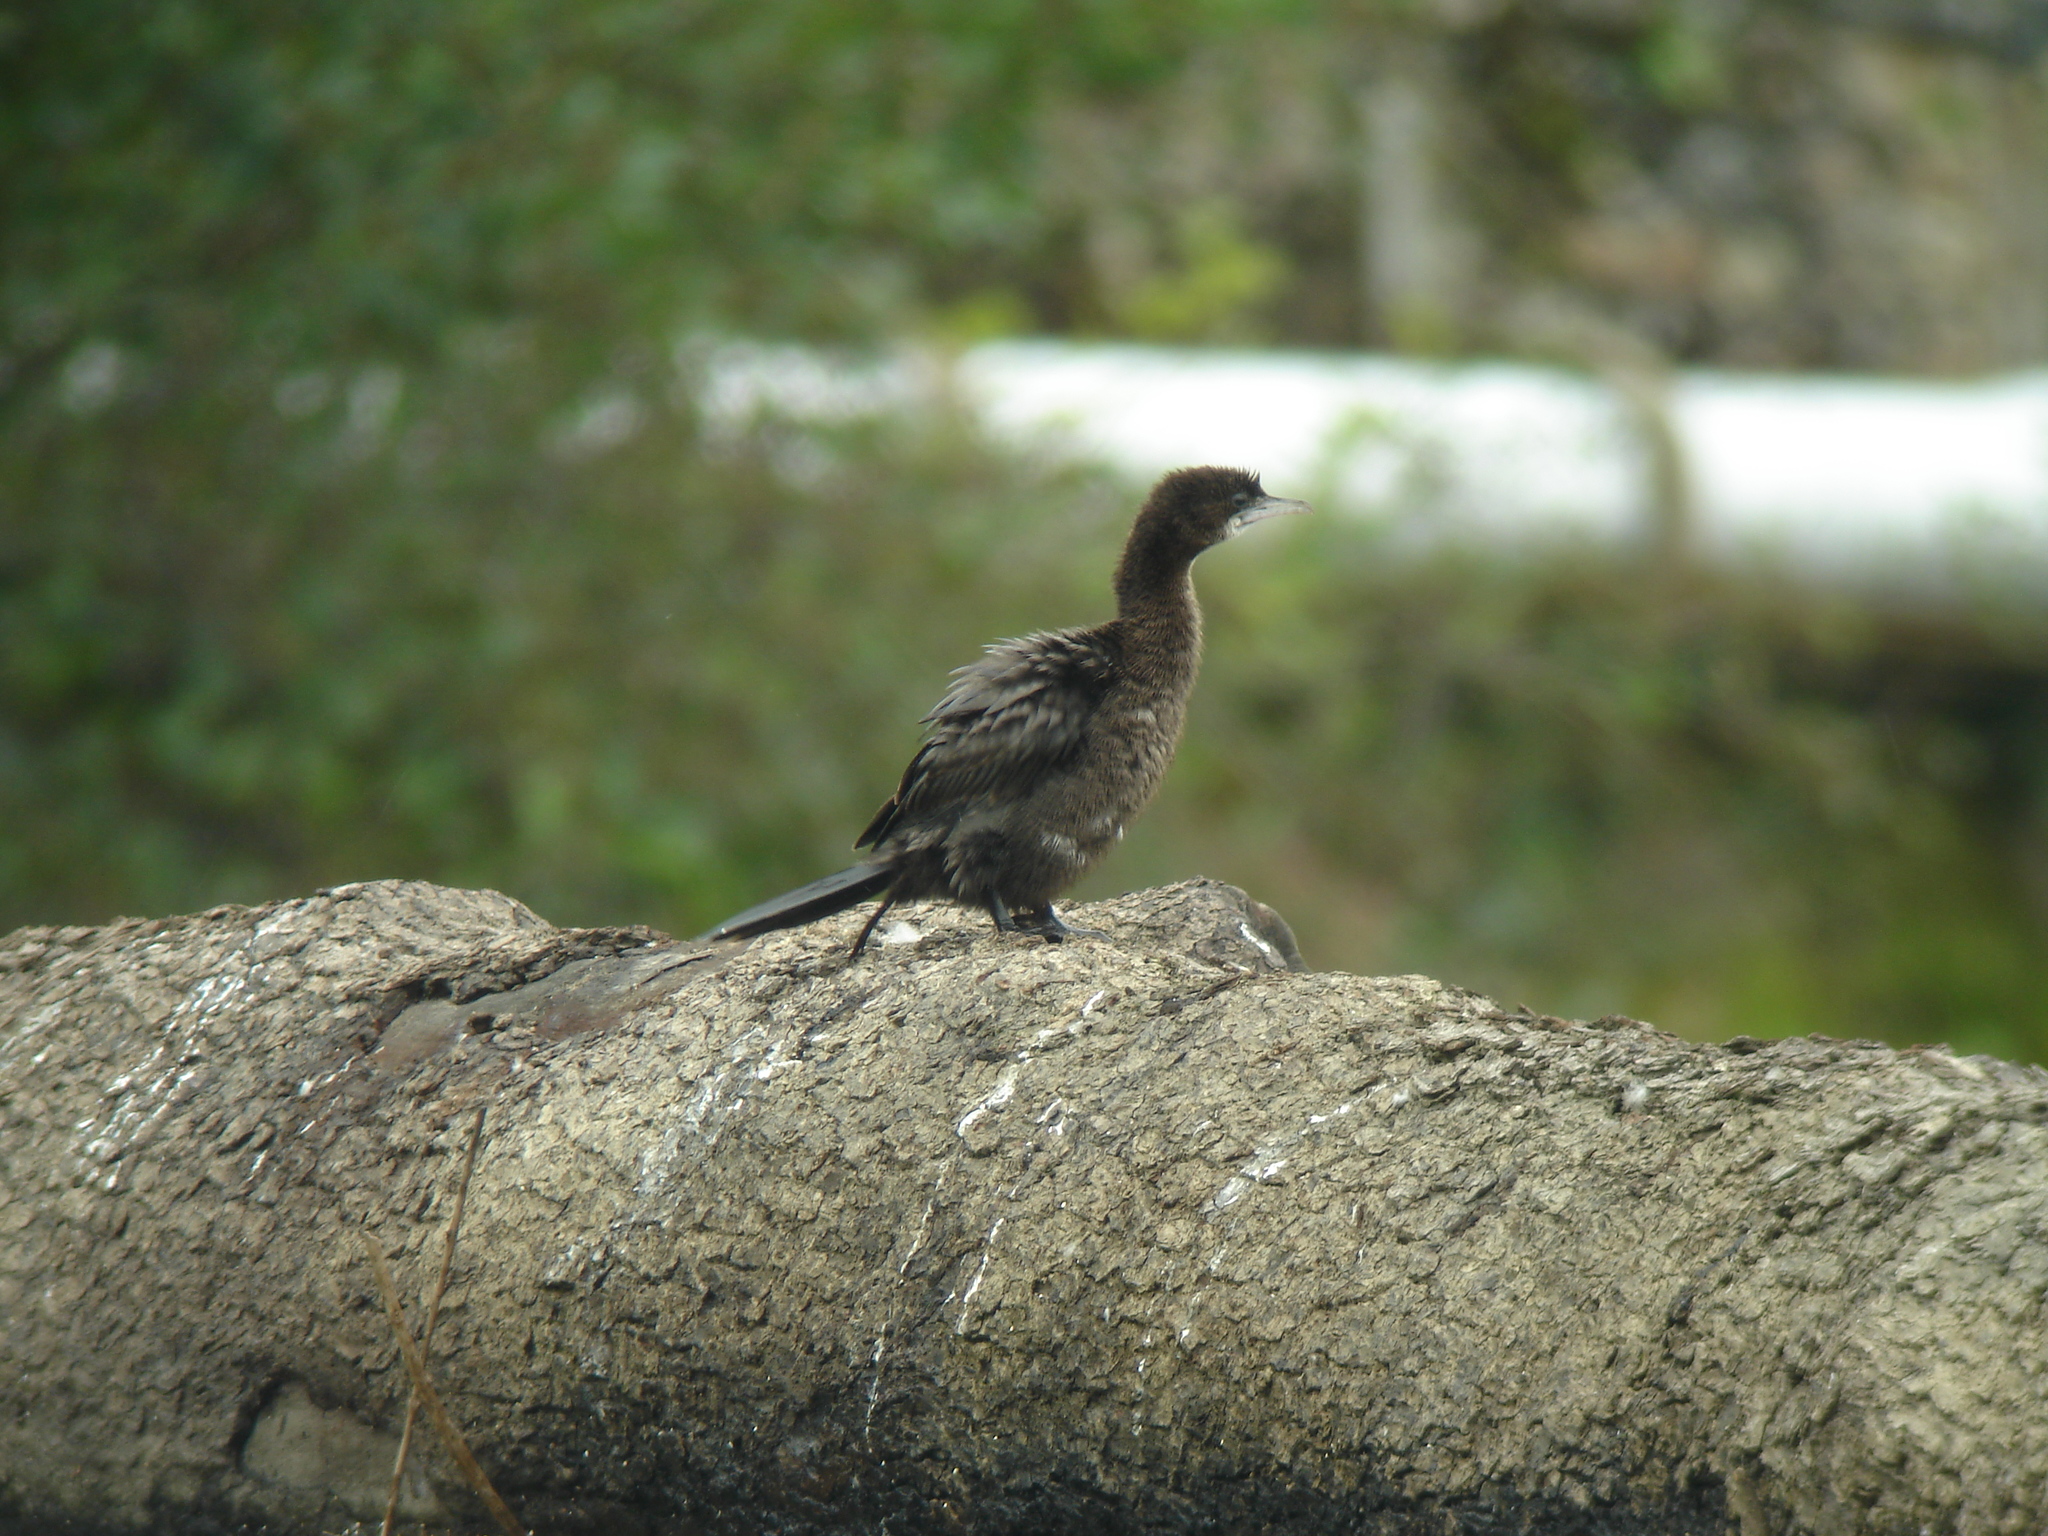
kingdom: Animalia
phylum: Chordata
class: Aves
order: Suliformes
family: Phalacrocoracidae
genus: Microcarbo
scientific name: Microcarbo pygmaeus
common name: Pygmy cormorant
